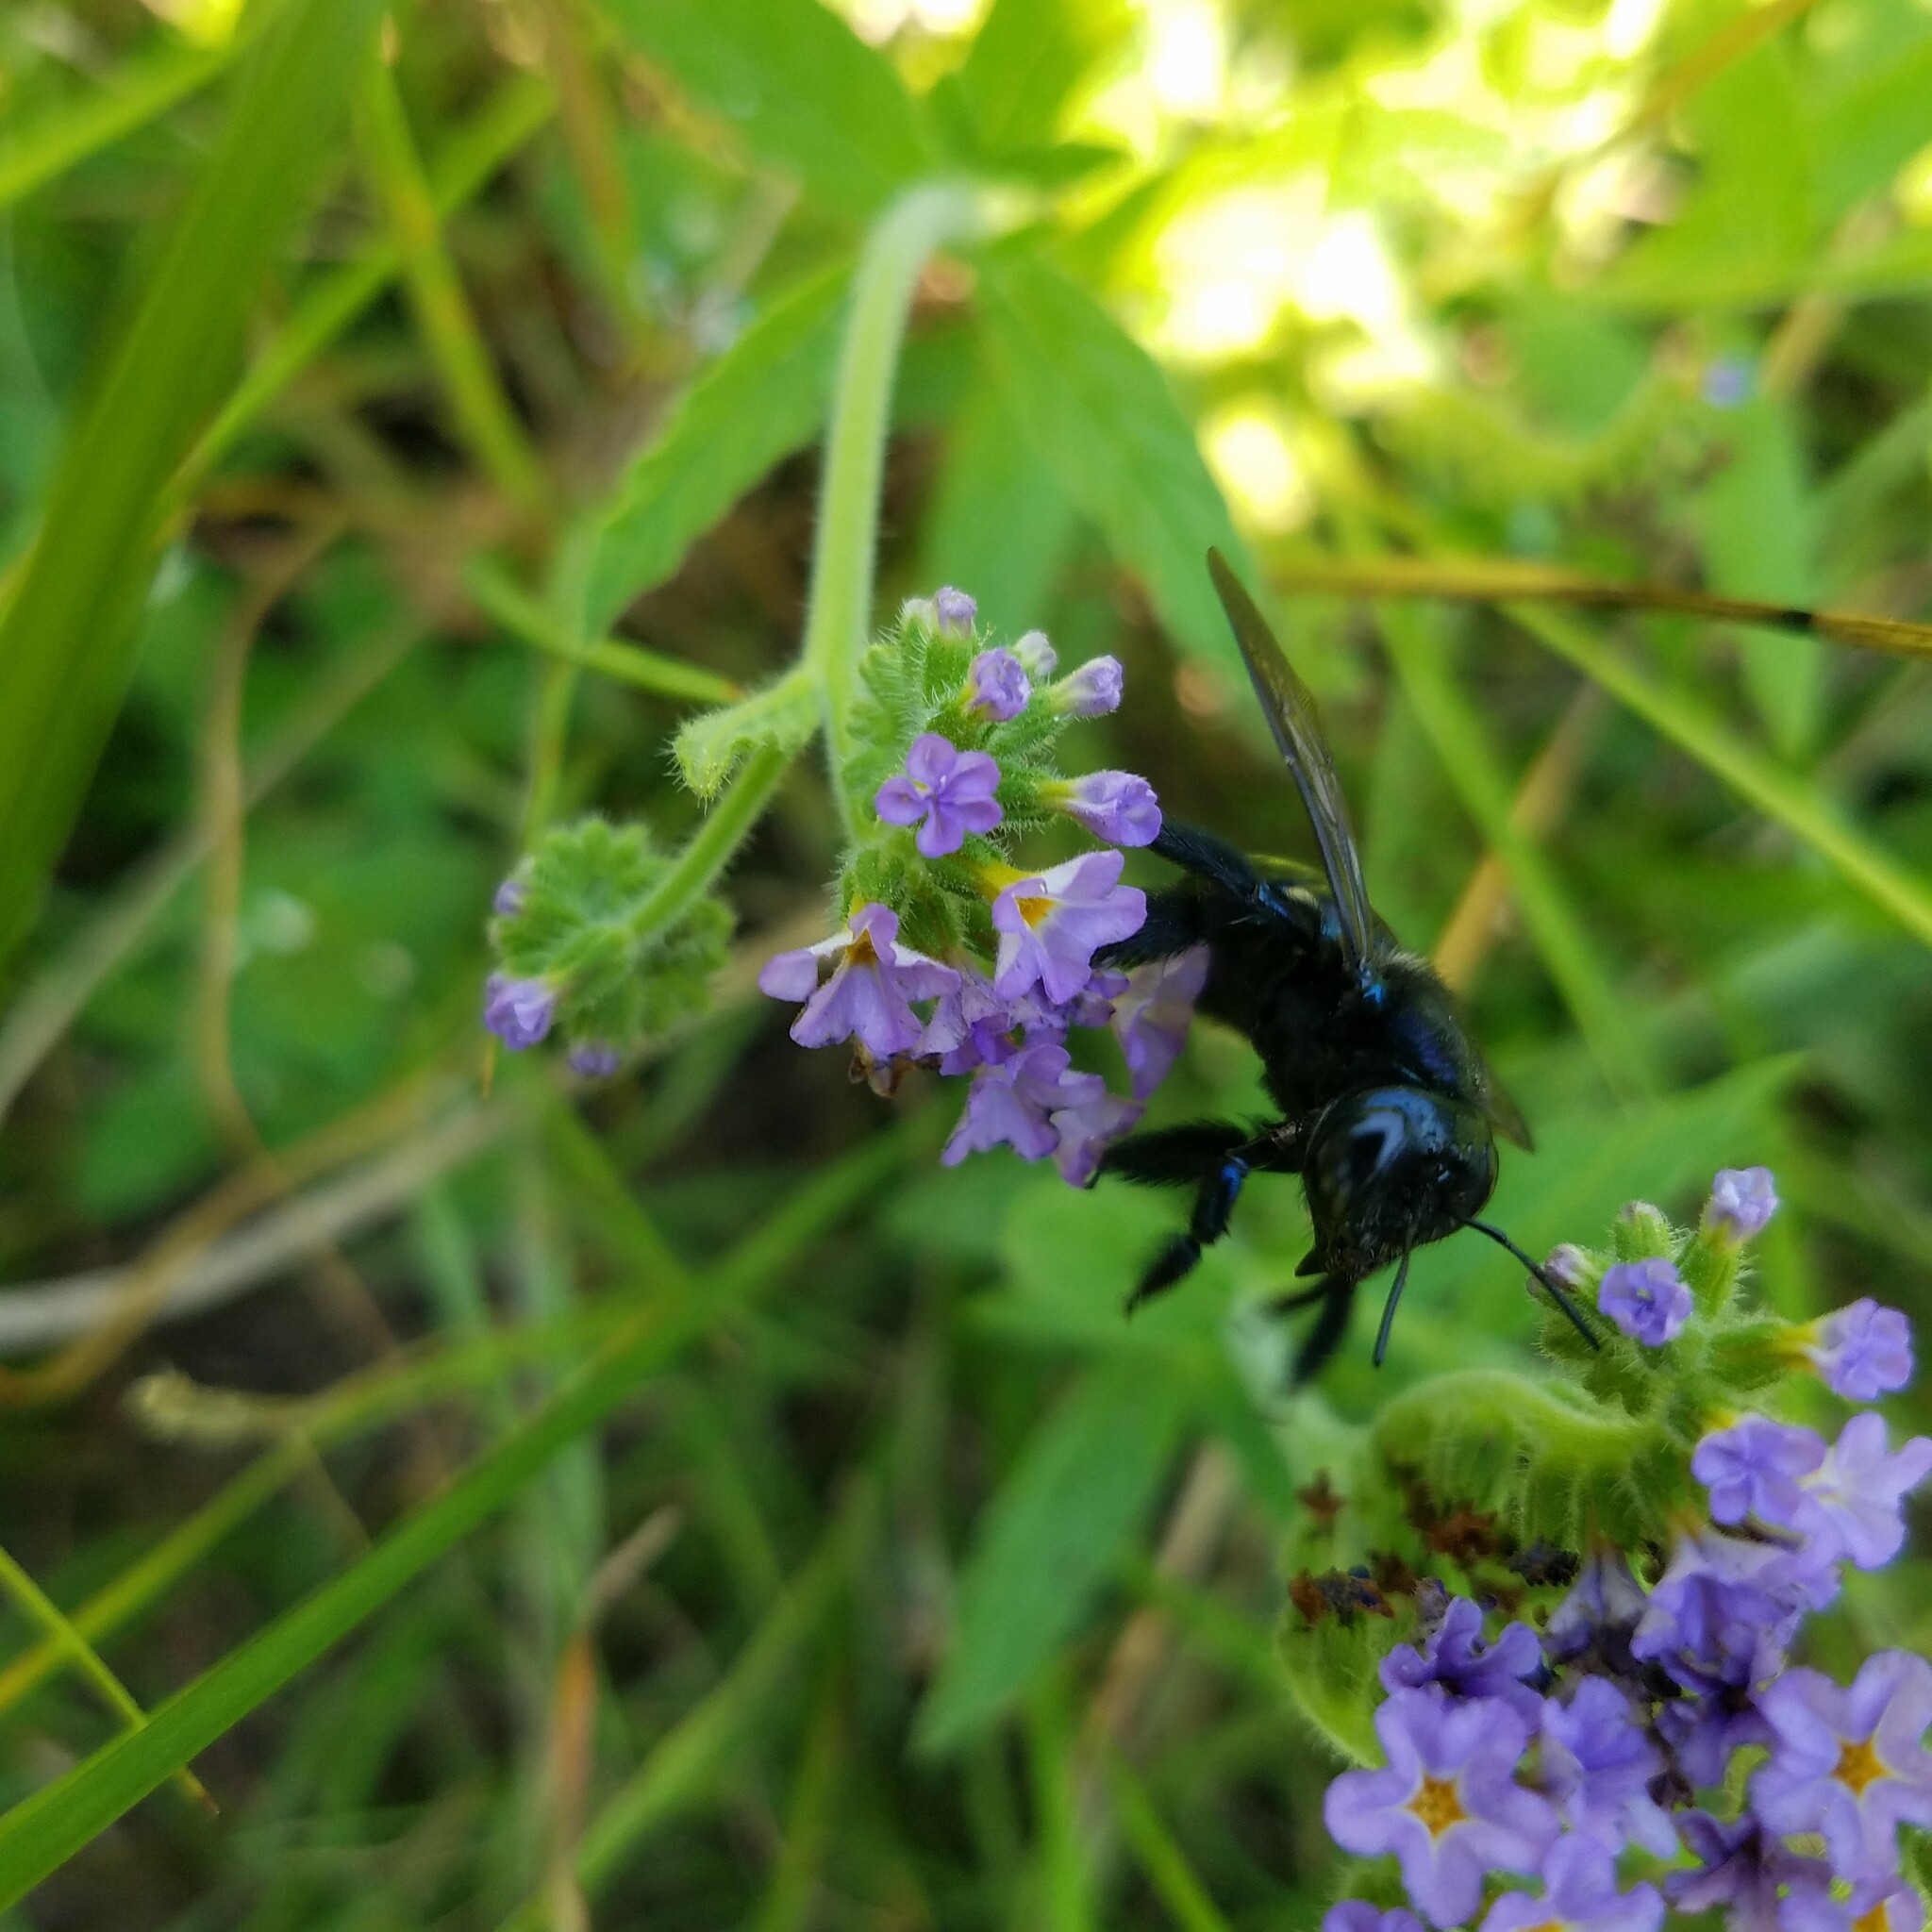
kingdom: Animalia
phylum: Arthropoda
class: Insecta
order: Hymenoptera
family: Apidae
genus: Xylocopa
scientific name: Xylocopa micans
